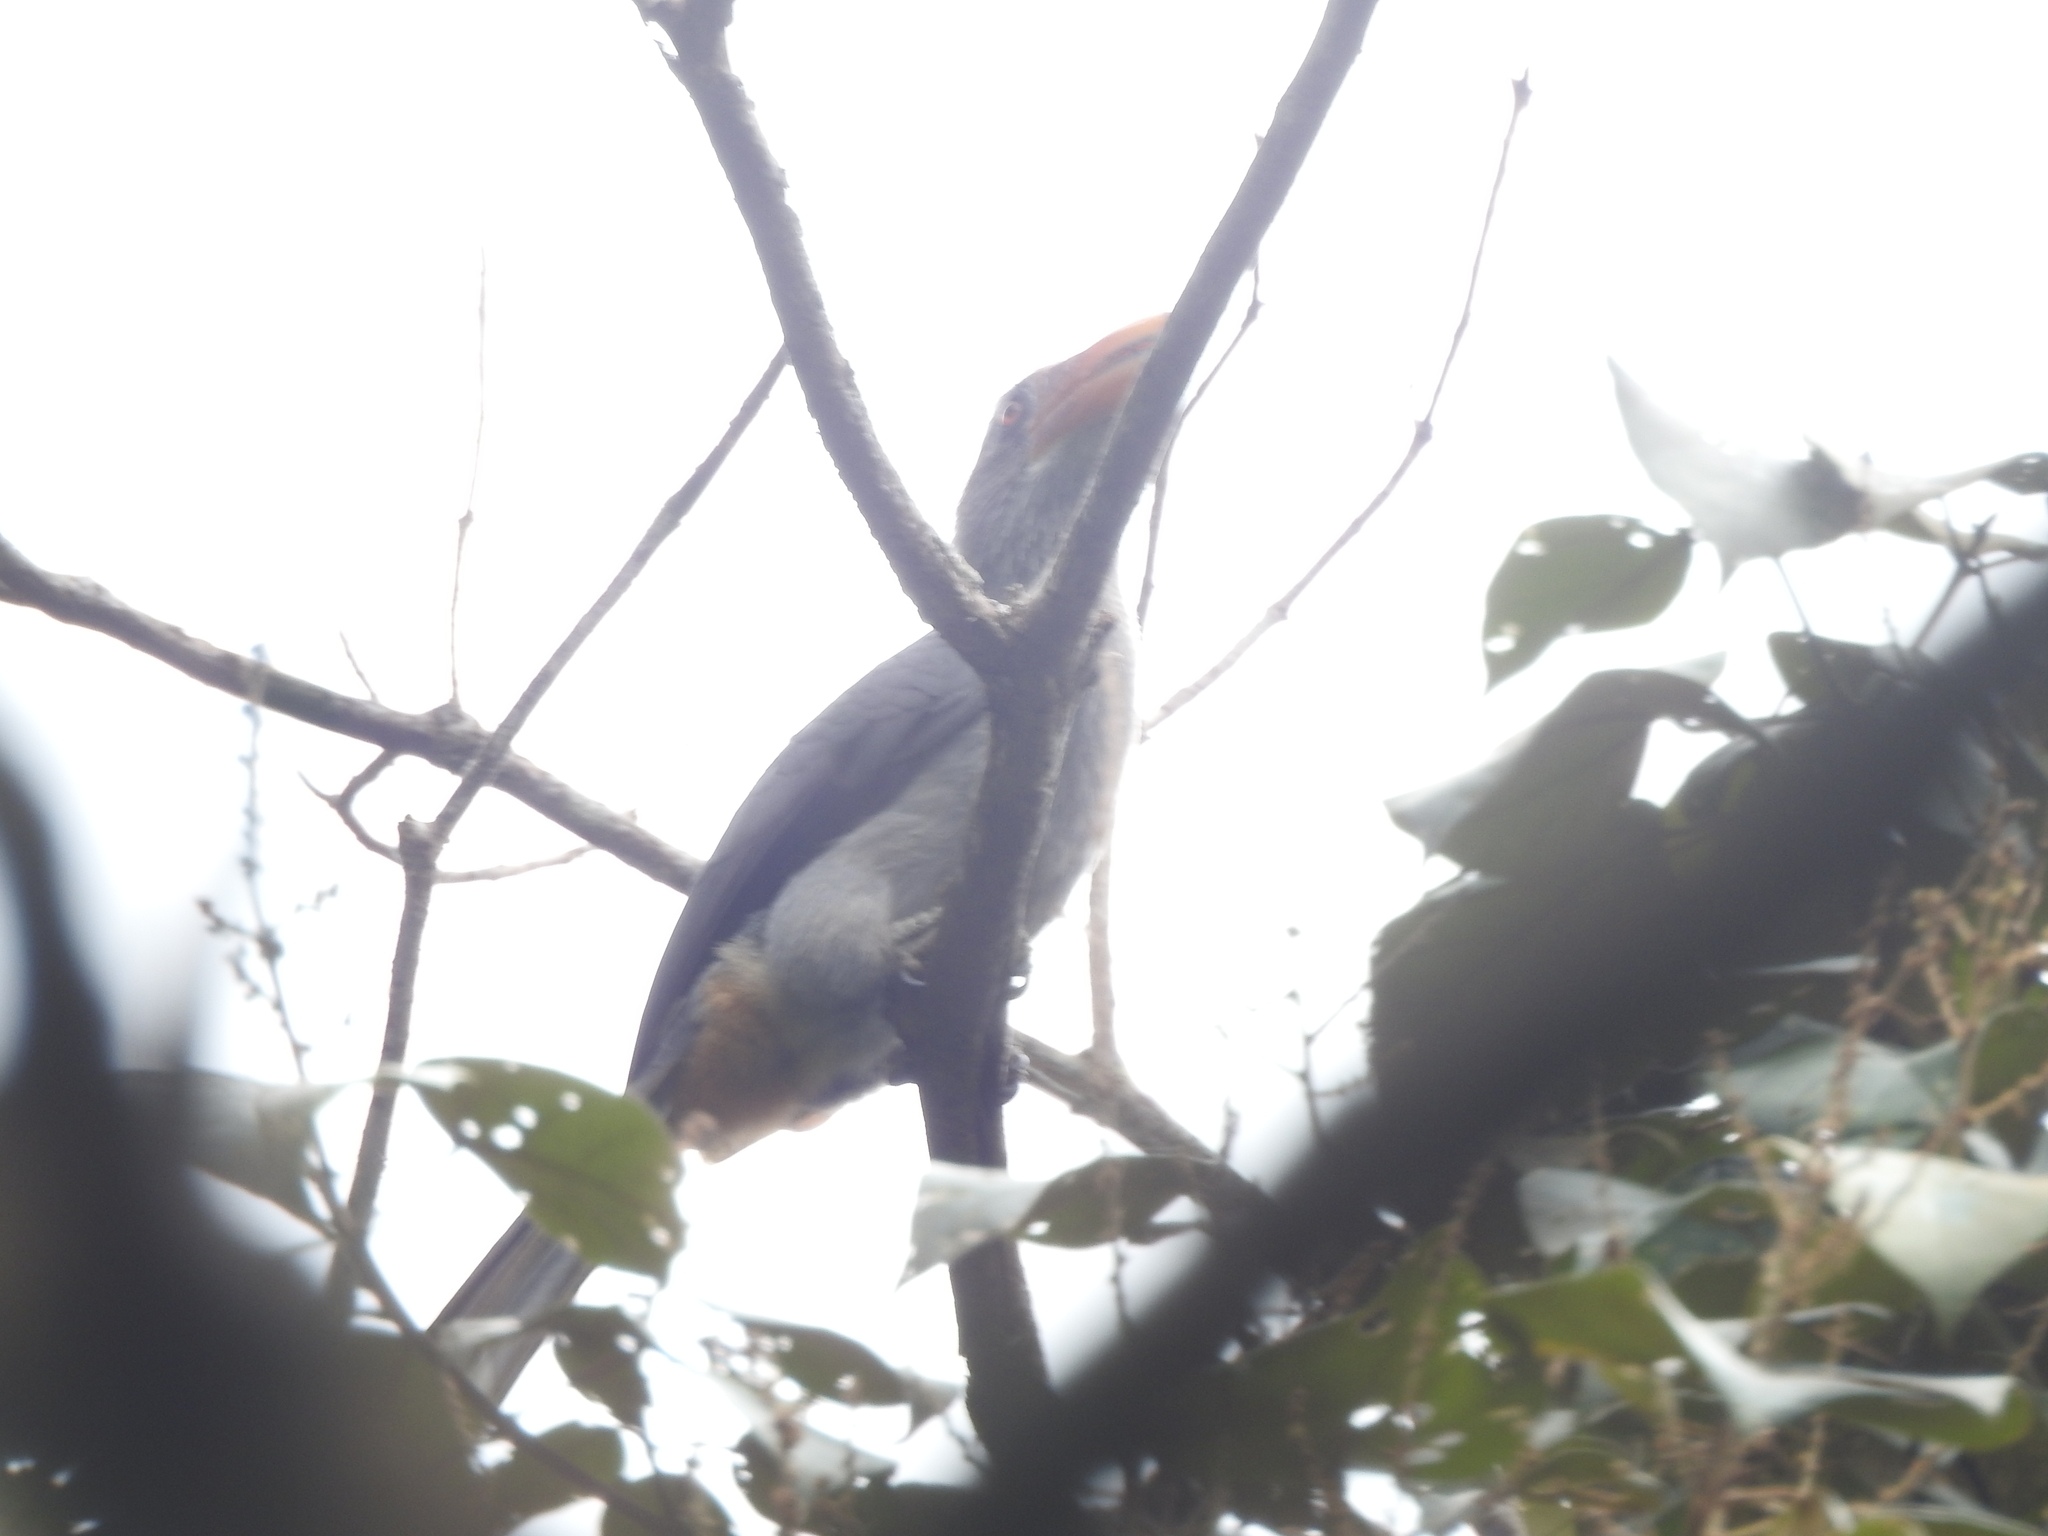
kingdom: Animalia
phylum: Chordata
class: Aves
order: Bucerotiformes
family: Bucerotidae
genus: Ocyceros
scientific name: Ocyceros griseus
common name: Malabar grey hornbill
